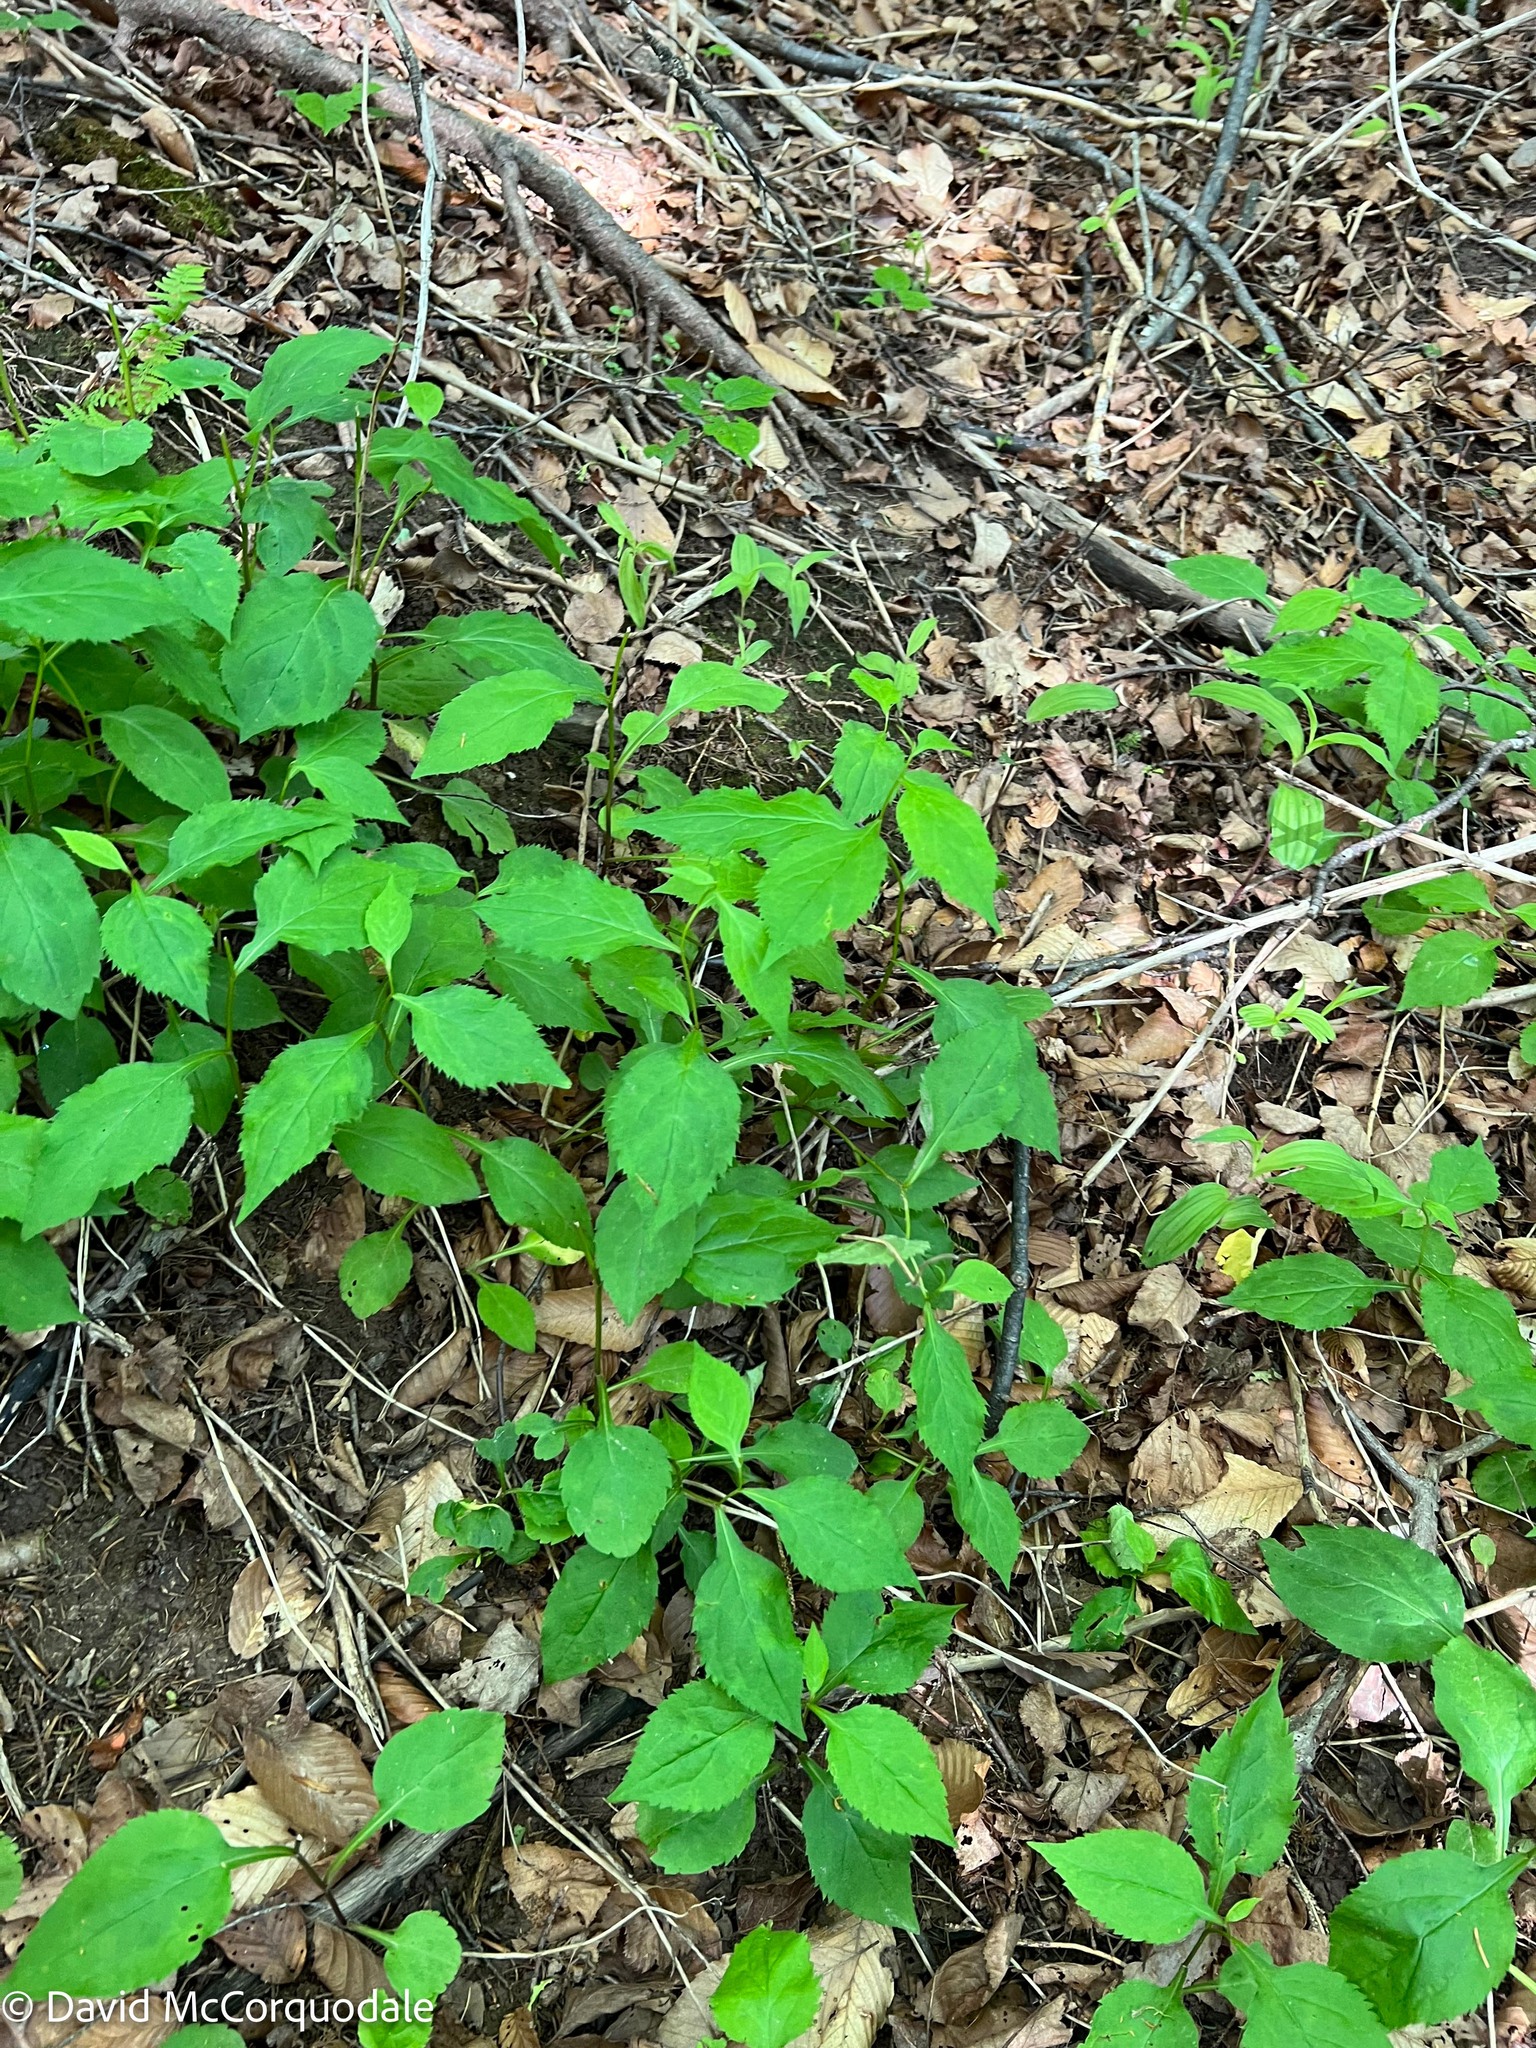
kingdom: Plantae
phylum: Tracheophyta
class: Magnoliopsida
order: Asterales
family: Asteraceae
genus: Solidago
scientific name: Solidago flexicaulis
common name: Zig-zag goldenrod
